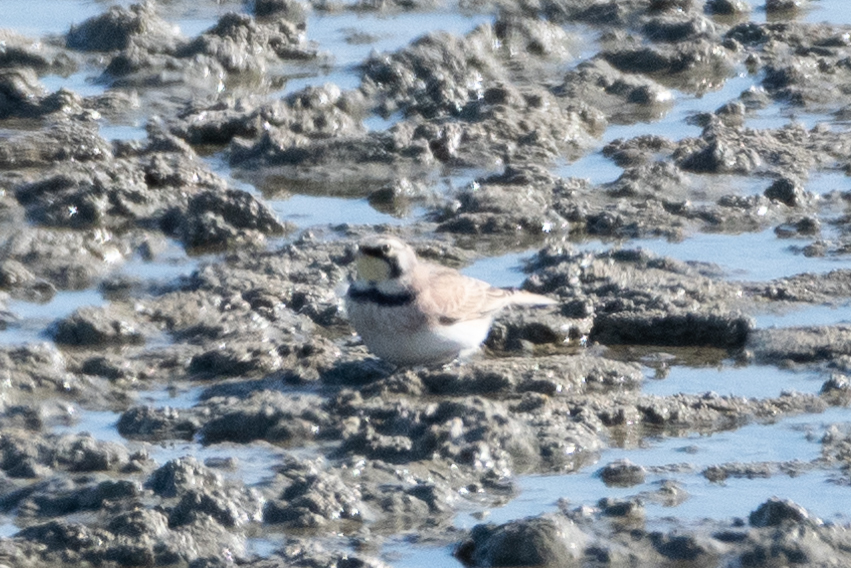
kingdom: Animalia
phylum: Chordata
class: Aves
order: Passeriformes
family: Alaudidae
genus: Eremophila
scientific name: Eremophila alpestris
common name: Horned lark
